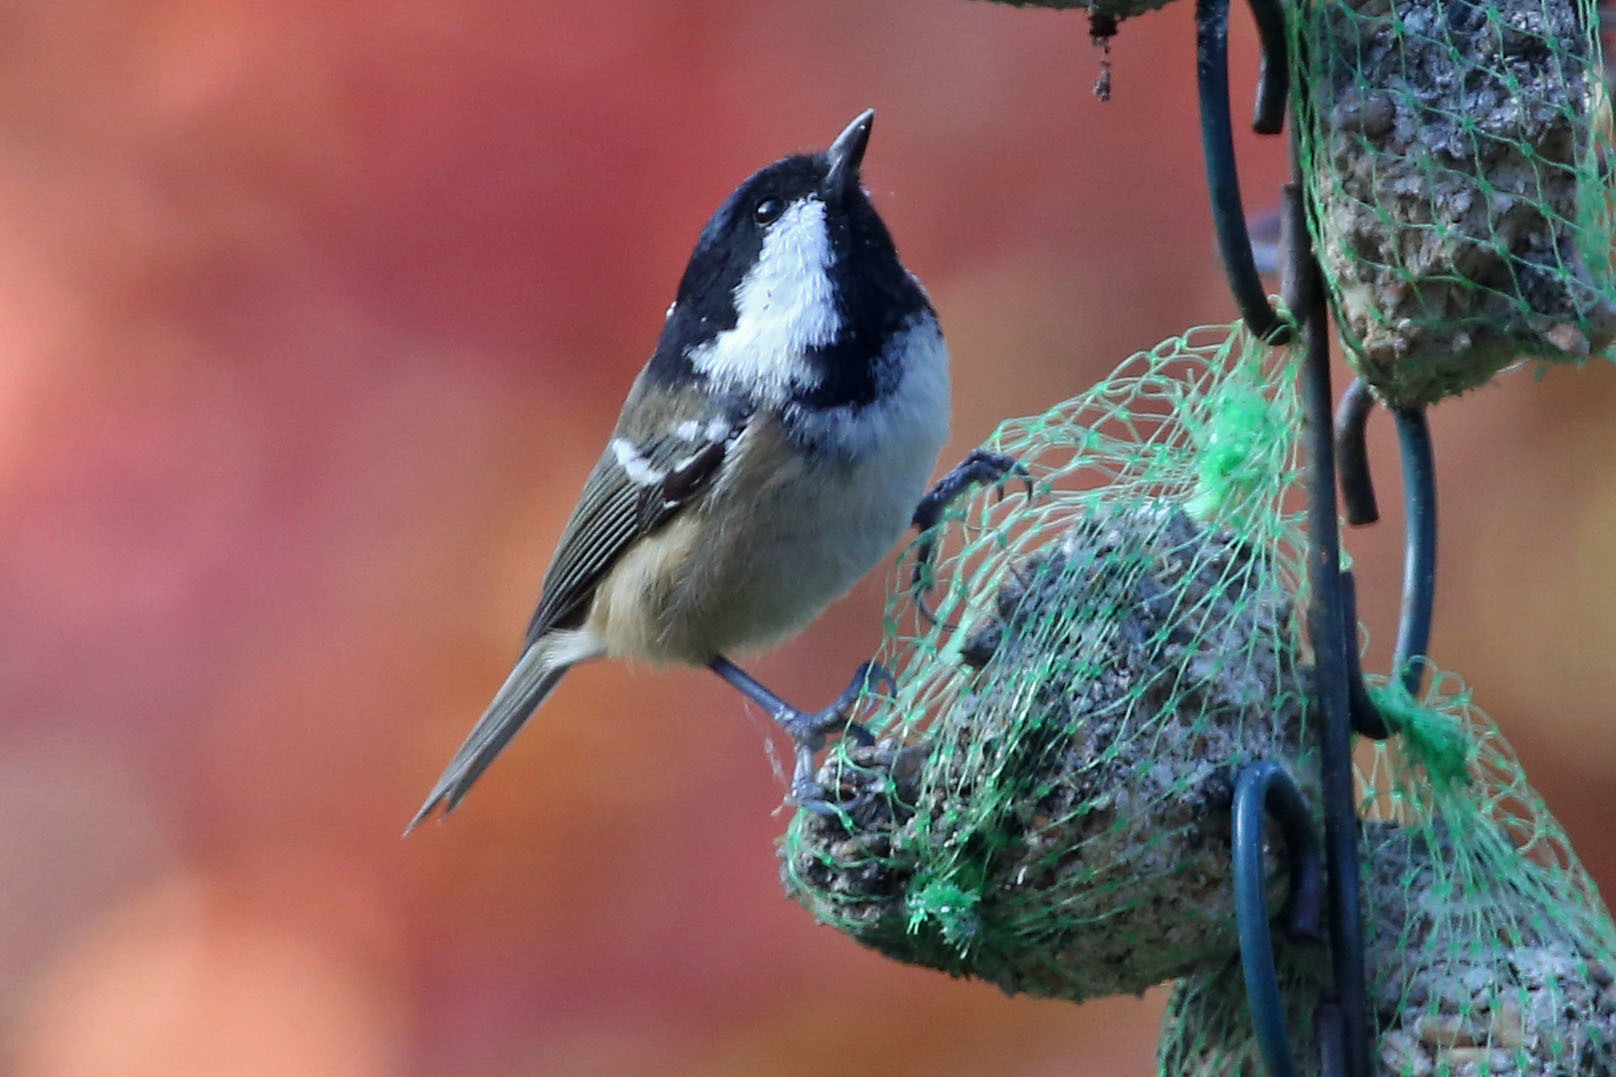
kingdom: Animalia
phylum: Chordata
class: Aves
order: Passeriformes
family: Paridae
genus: Periparus
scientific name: Periparus ater
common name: Coal tit
